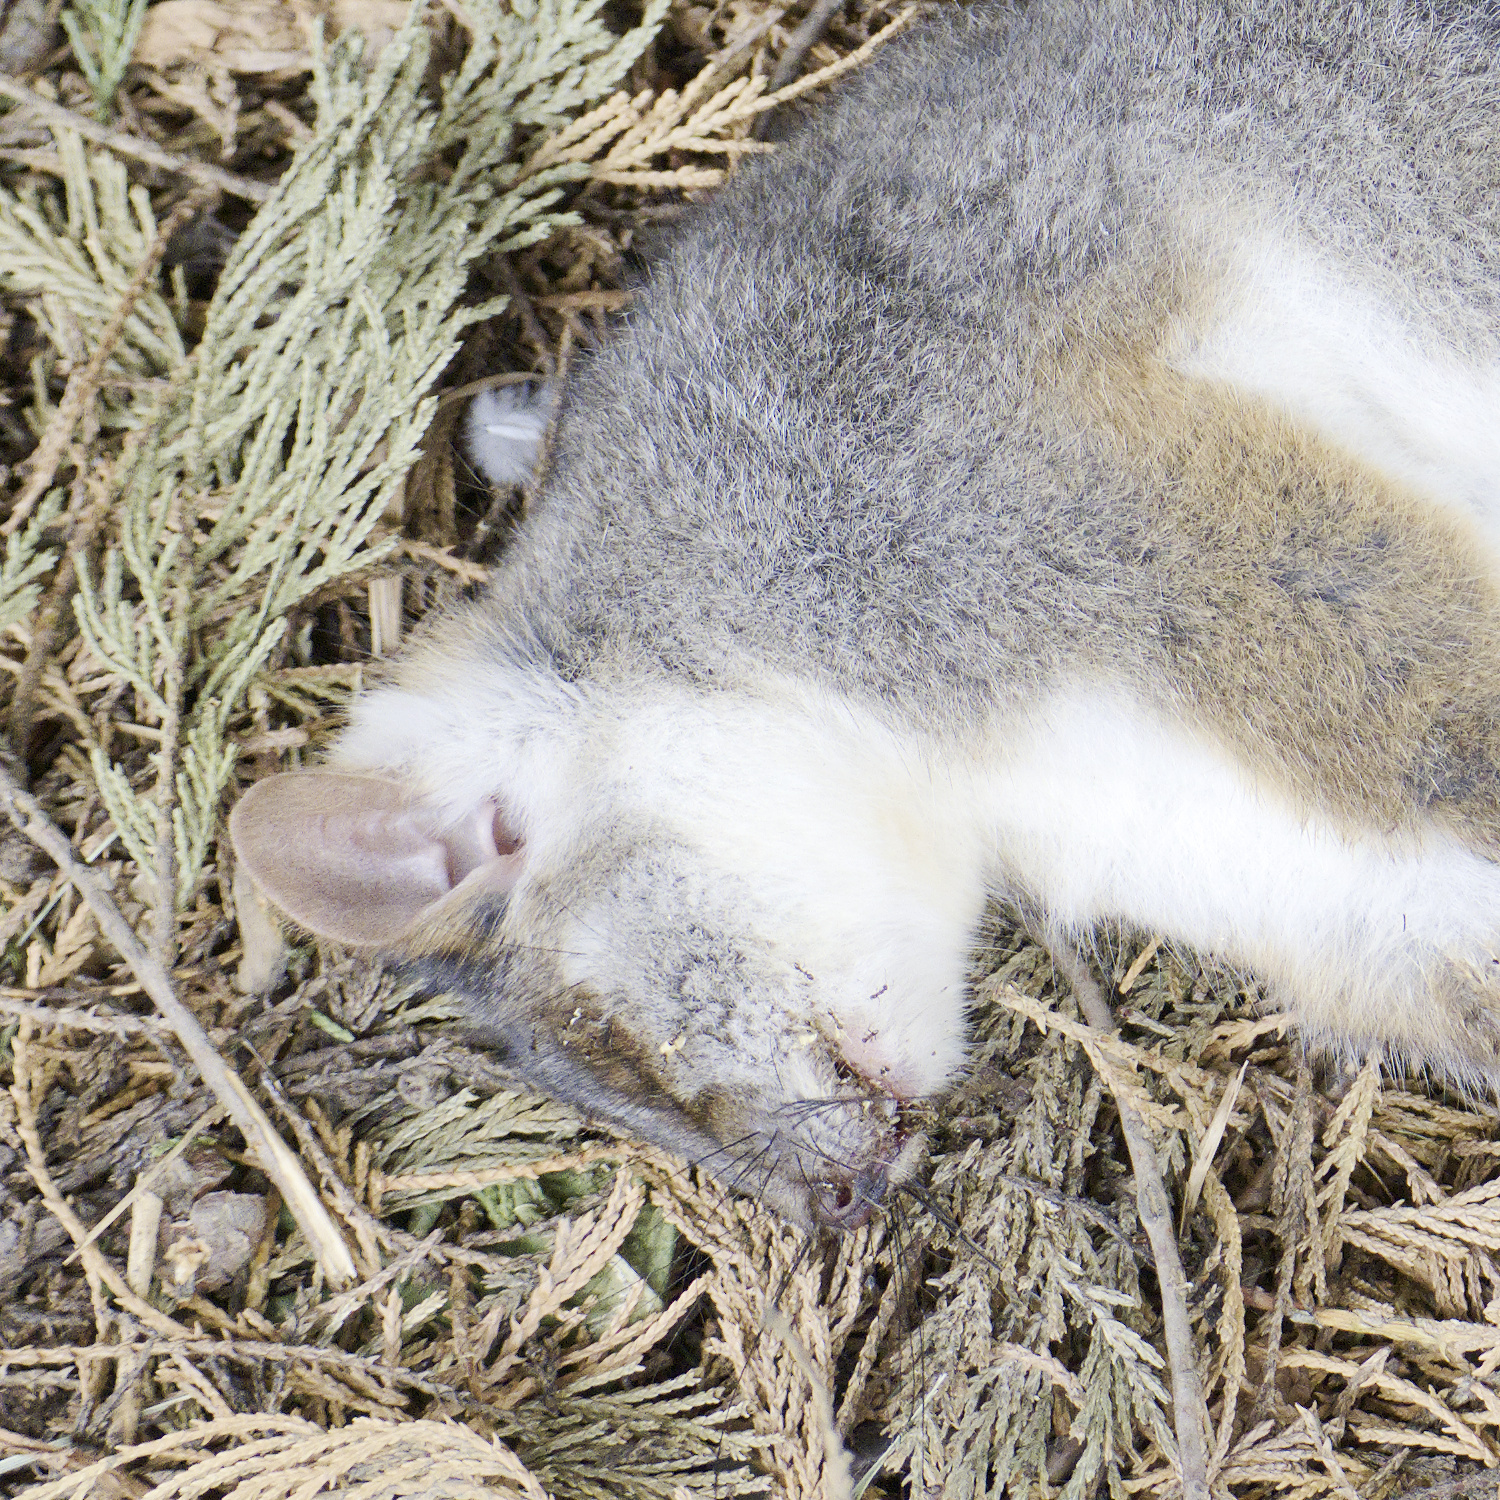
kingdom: Animalia
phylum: Chordata
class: Mammalia
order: Diprotodontia
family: Pseudocheiridae
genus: Pseudocheirus
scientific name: Pseudocheirus peregrinus
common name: Common ringtail possum
